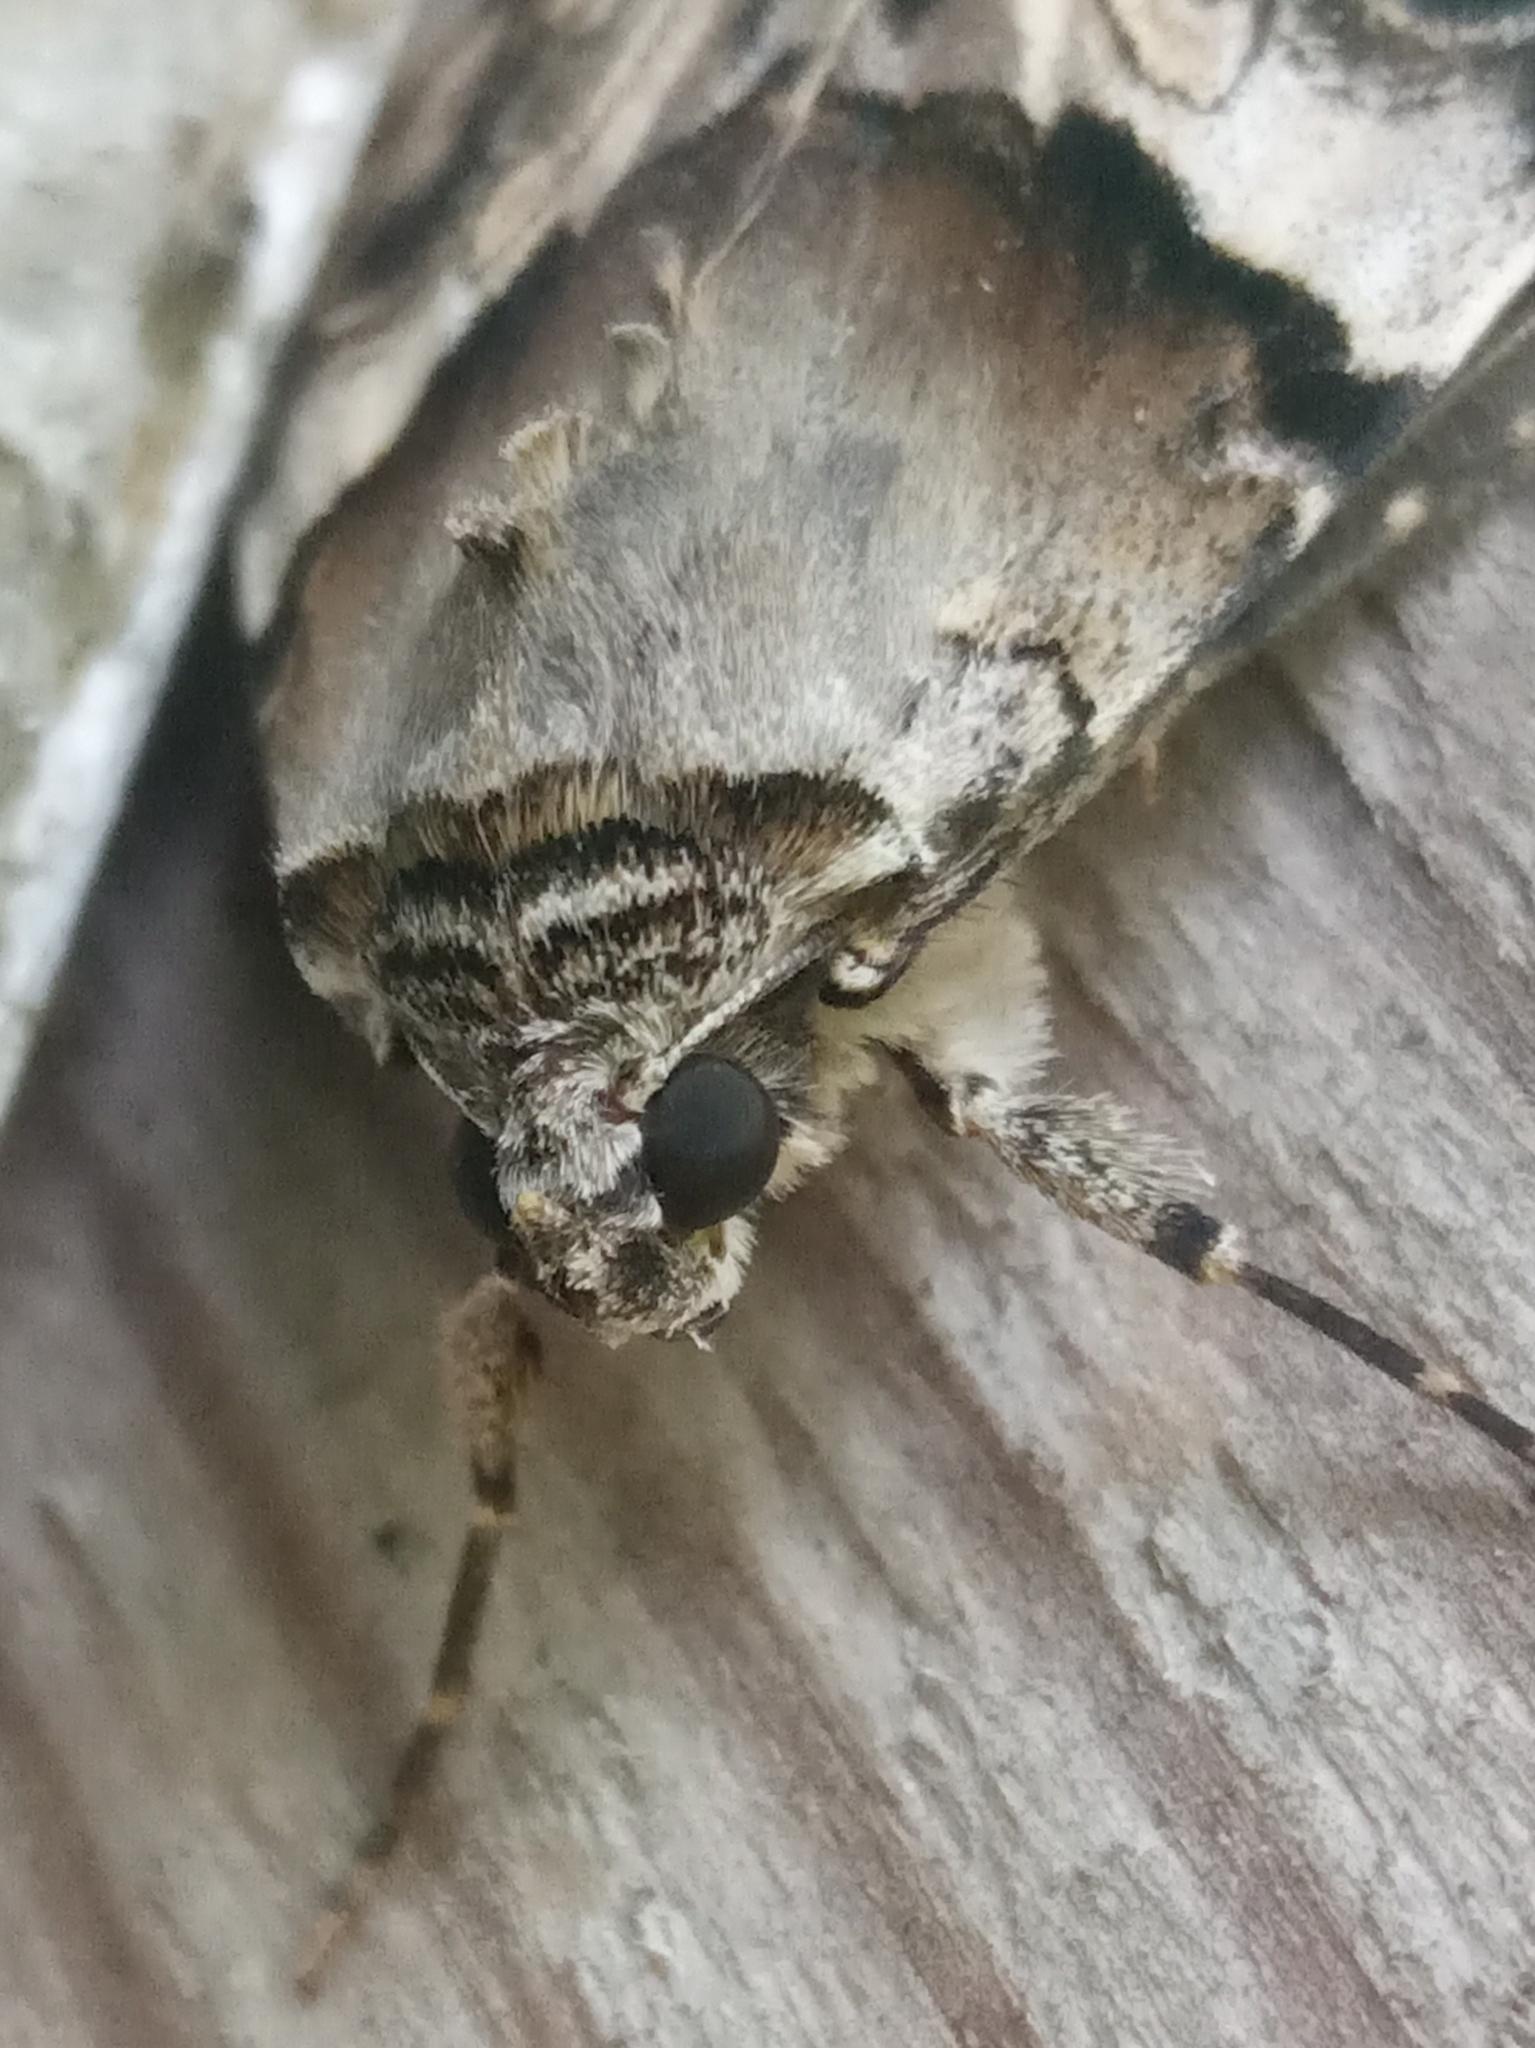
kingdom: Animalia
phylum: Arthropoda
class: Insecta
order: Lepidoptera
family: Erebidae
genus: Catocala
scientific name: Catocala fulminea
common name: Yellow bands underwing
